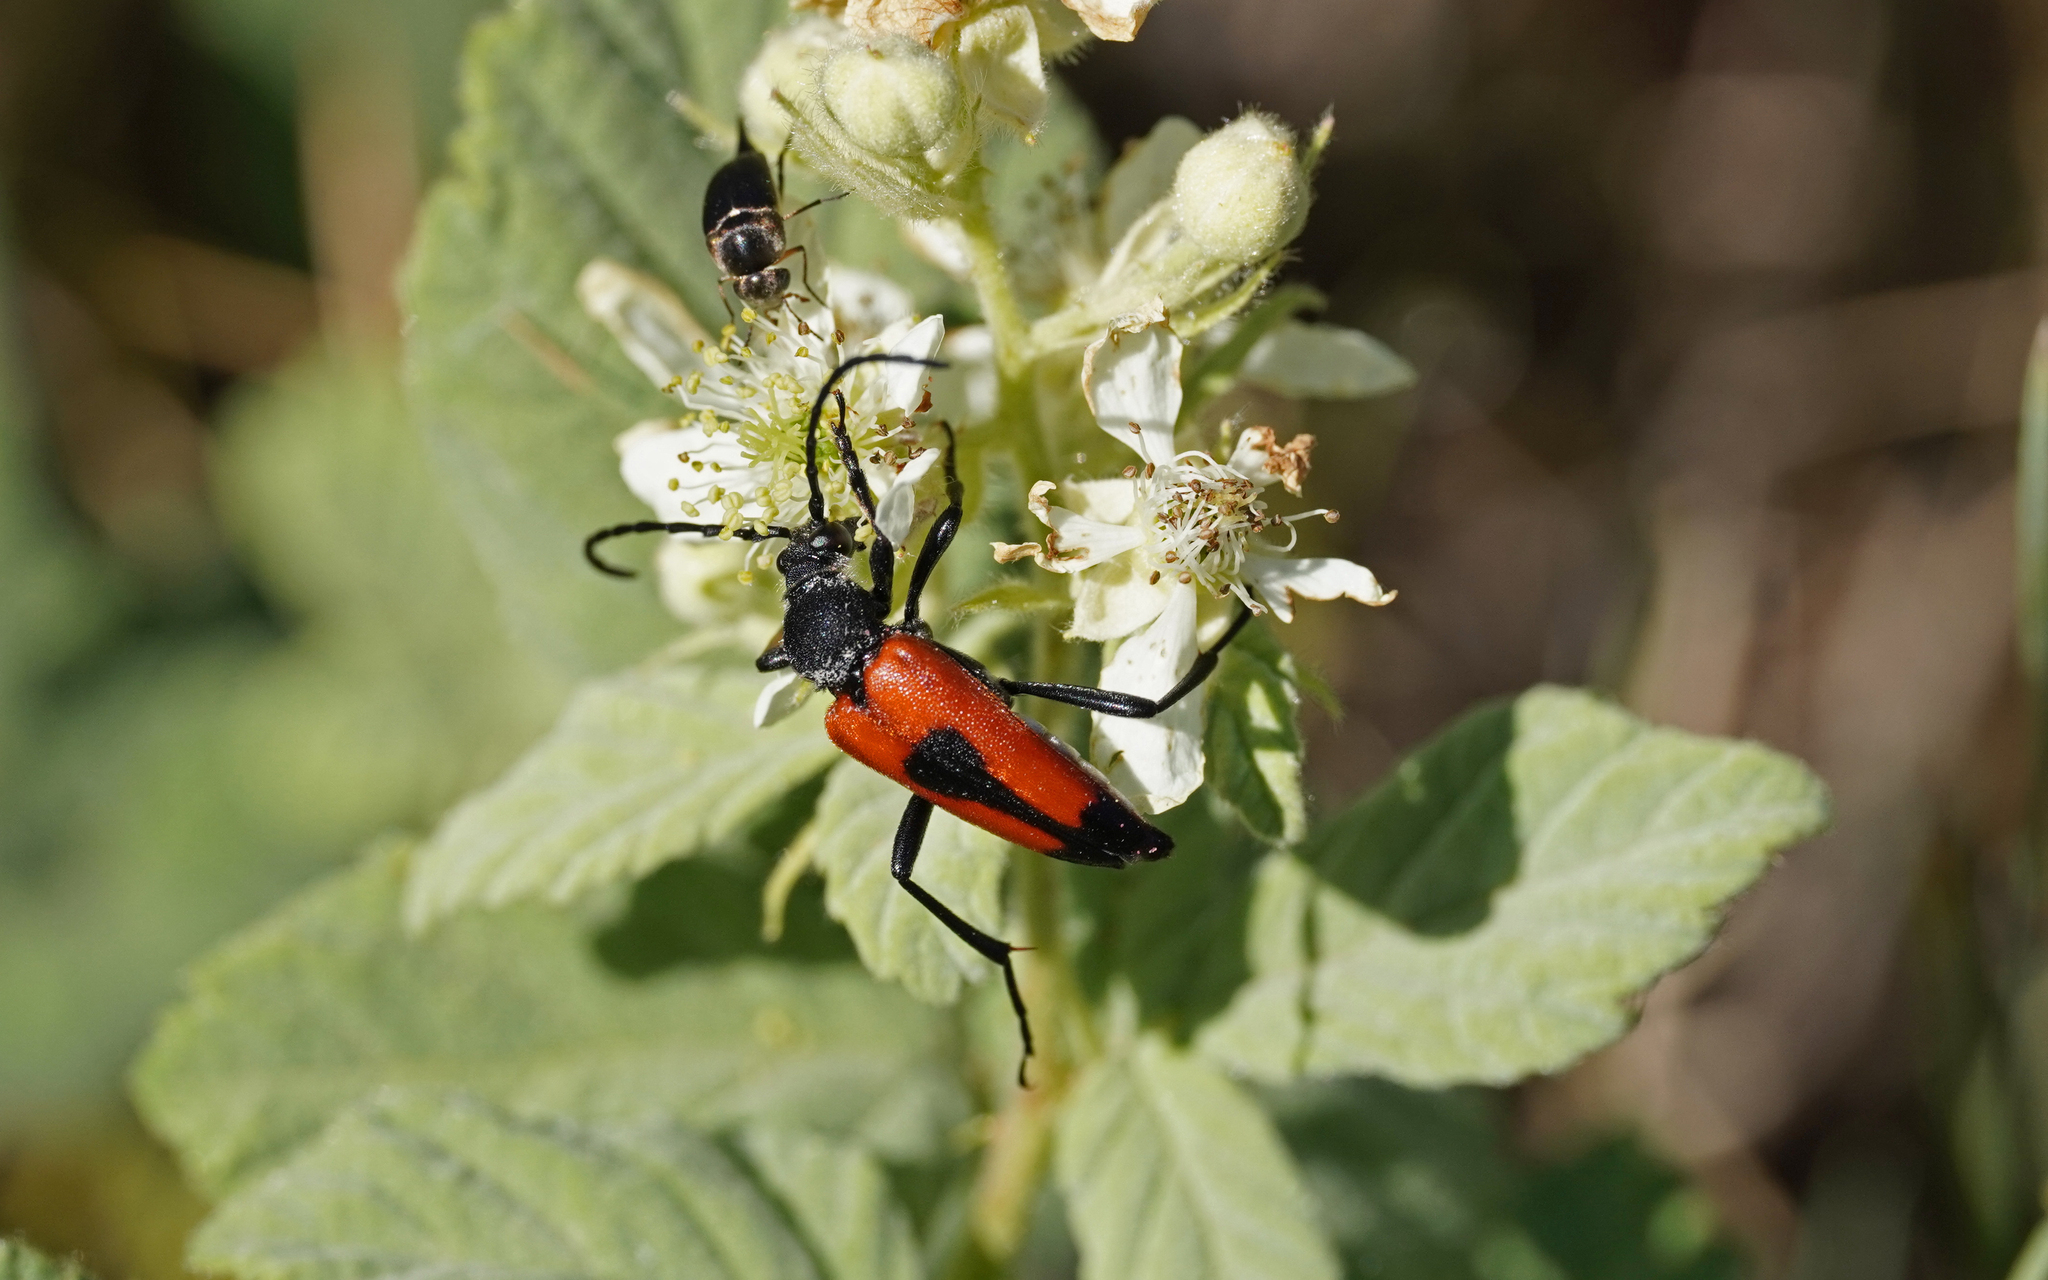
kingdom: Animalia
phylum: Arthropoda
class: Insecta
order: Coleoptera
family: Cerambycidae
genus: Stictoleptura
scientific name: Stictoleptura cordigera
